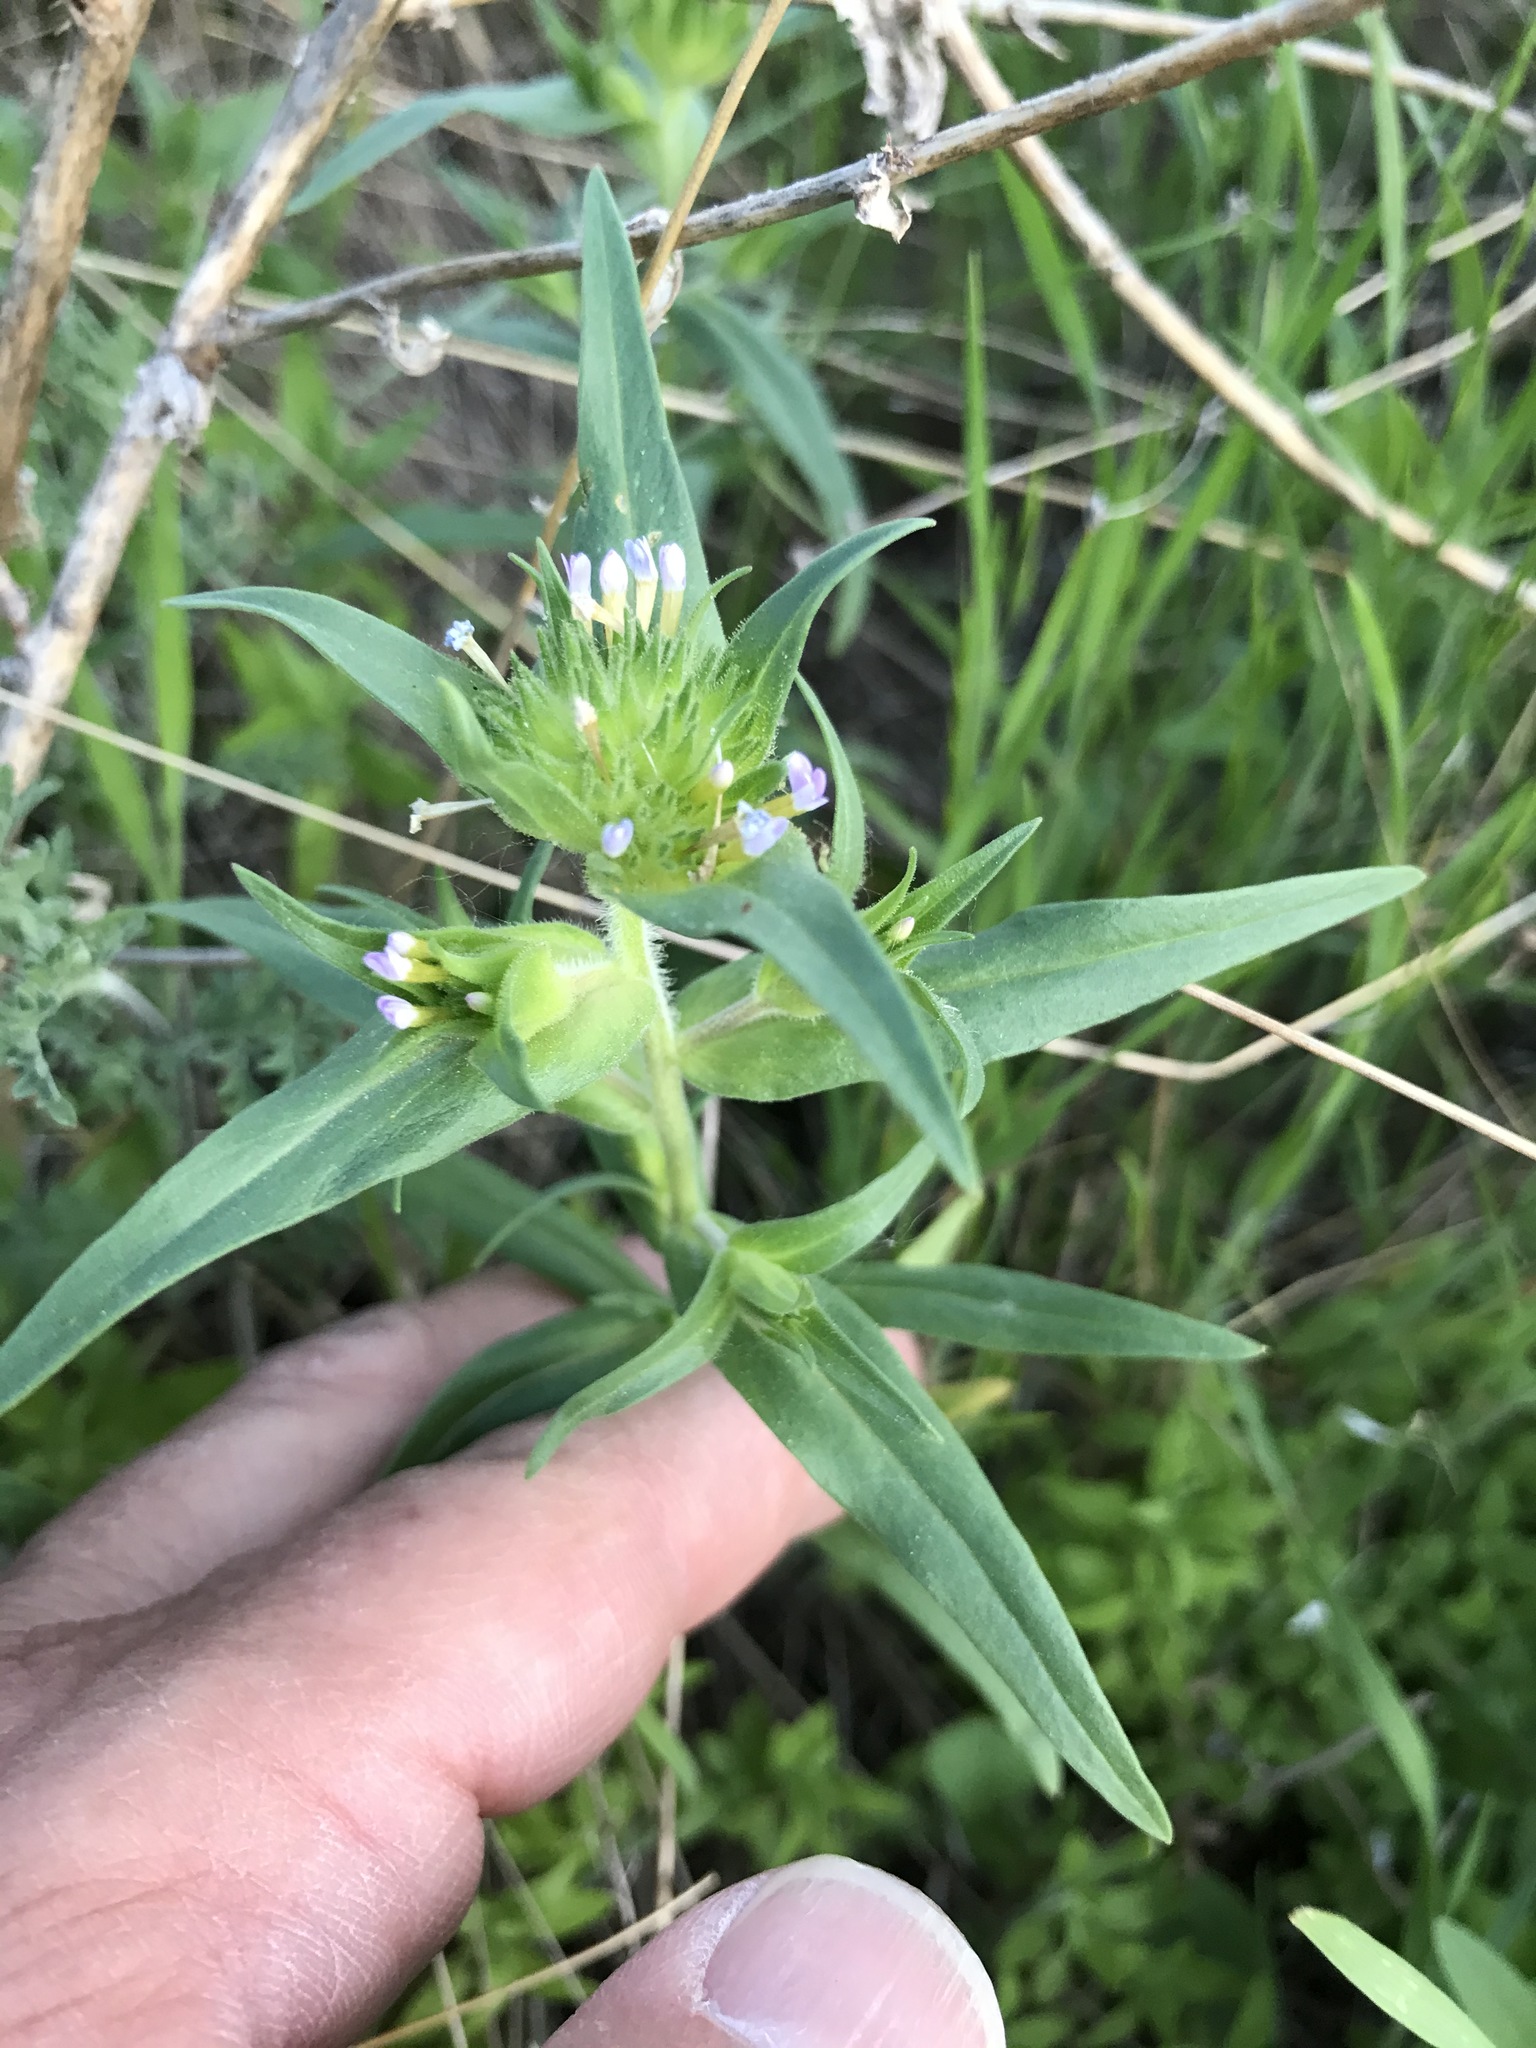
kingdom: Plantae
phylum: Tracheophyta
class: Magnoliopsida
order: Ericales
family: Polemoniaceae
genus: Collomia
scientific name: Collomia linearis
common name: Tiny trumpet
